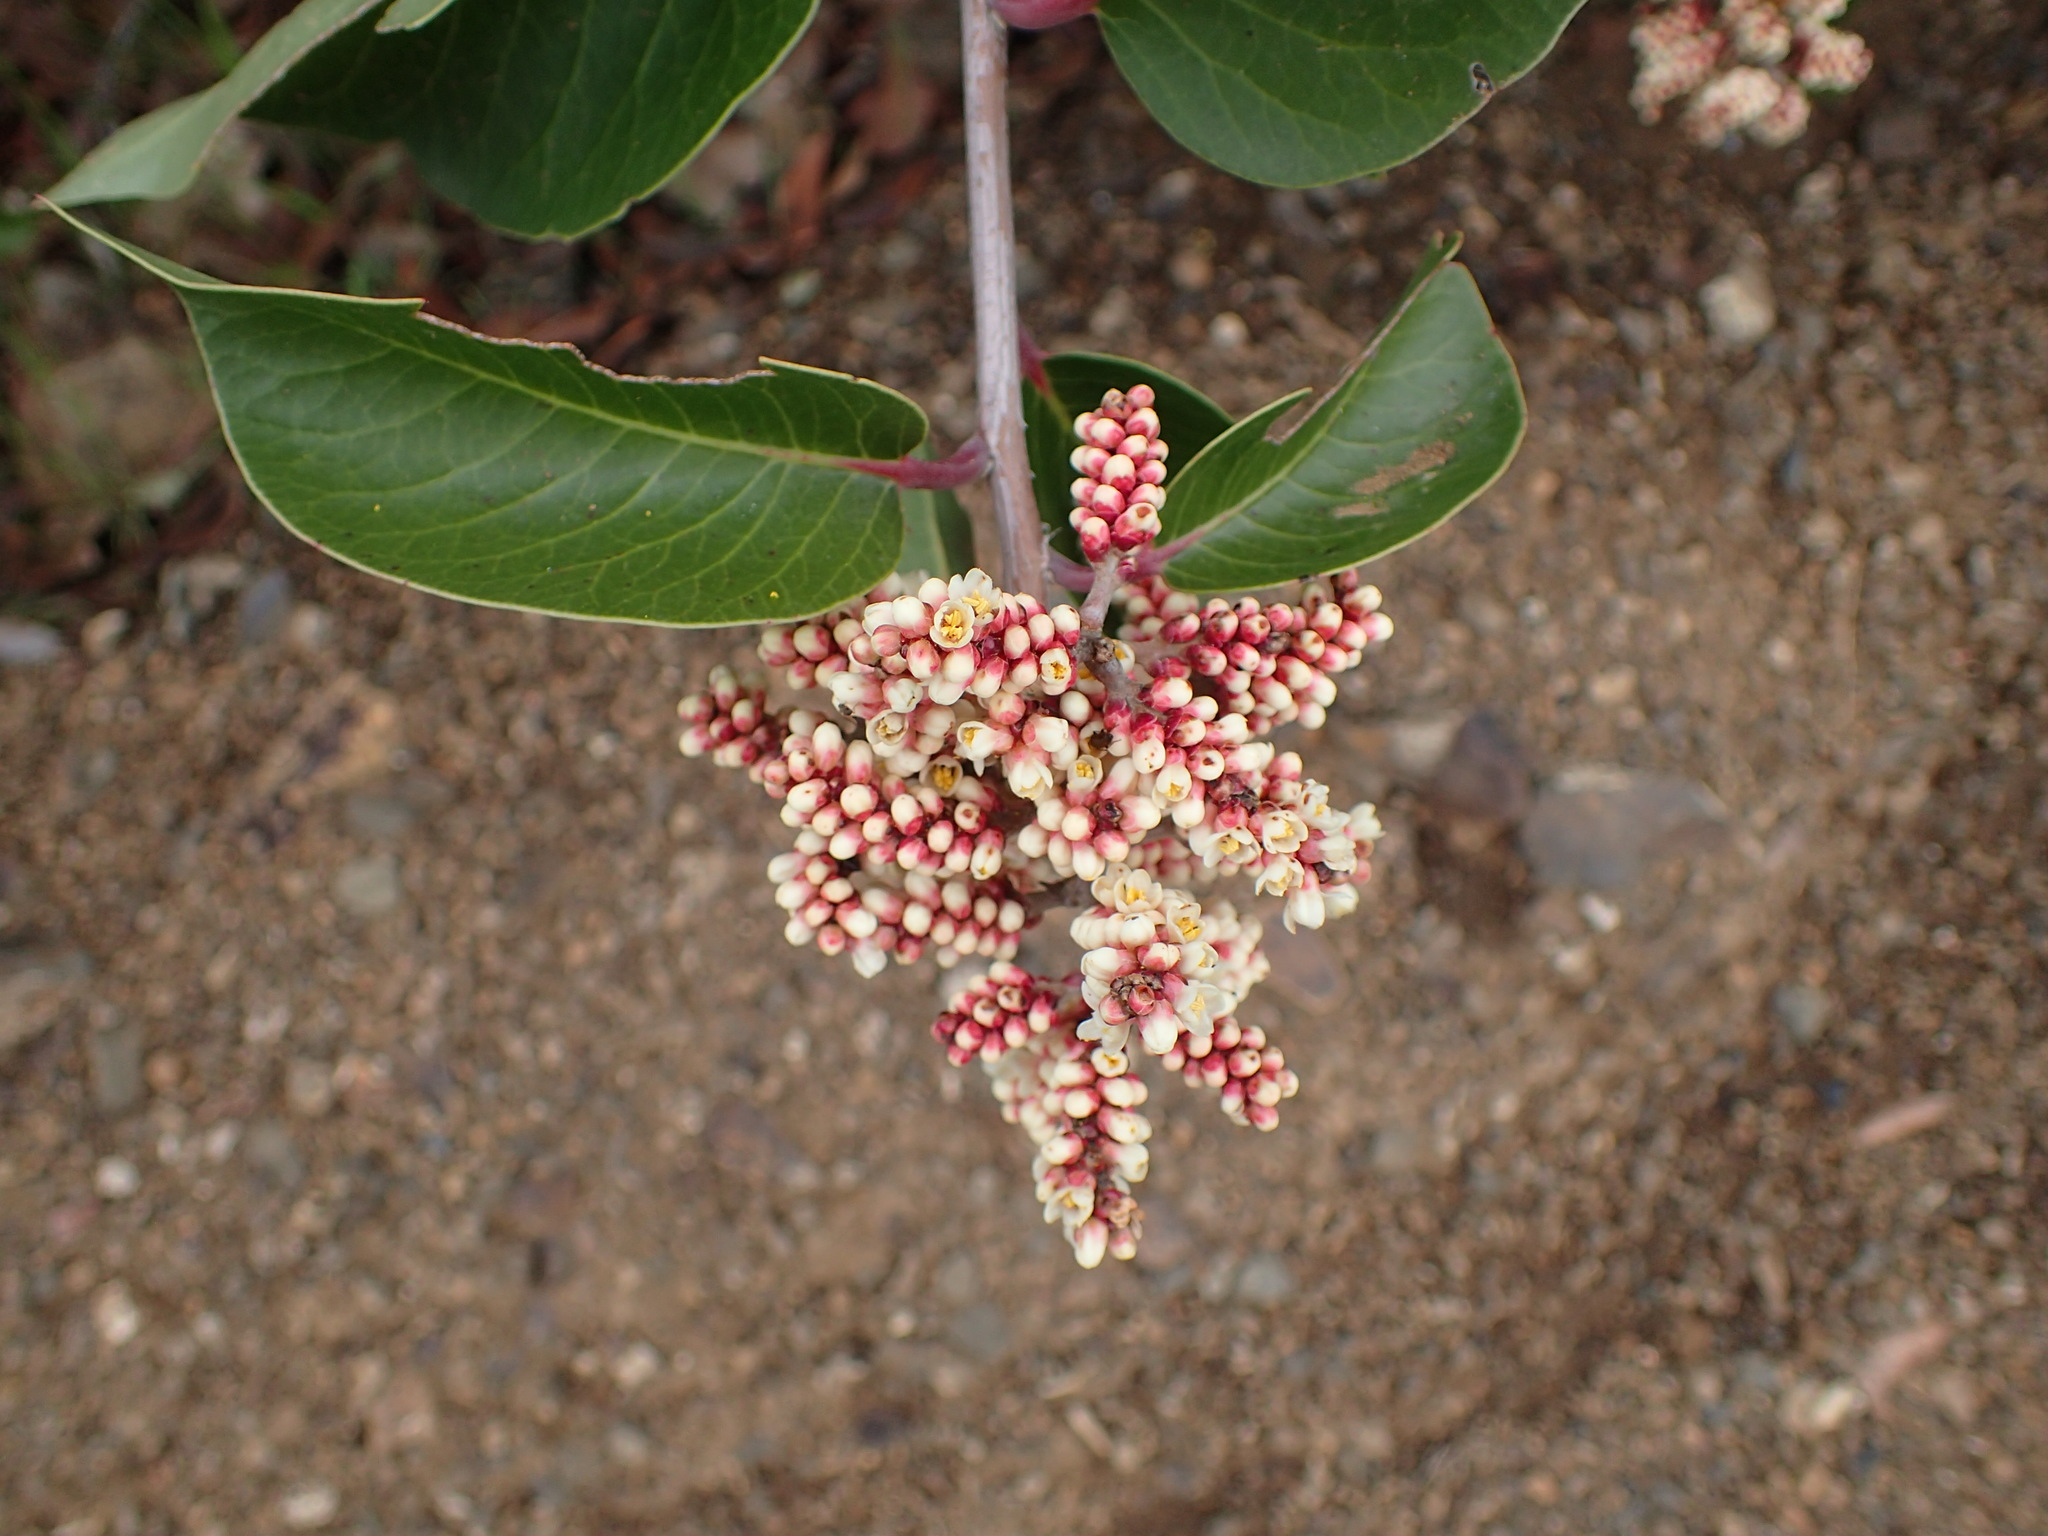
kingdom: Plantae
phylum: Tracheophyta
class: Magnoliopsida
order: Sapindales
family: Anacardiaceae
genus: Rhus
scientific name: Rhus ovata
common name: Sugar sumac
